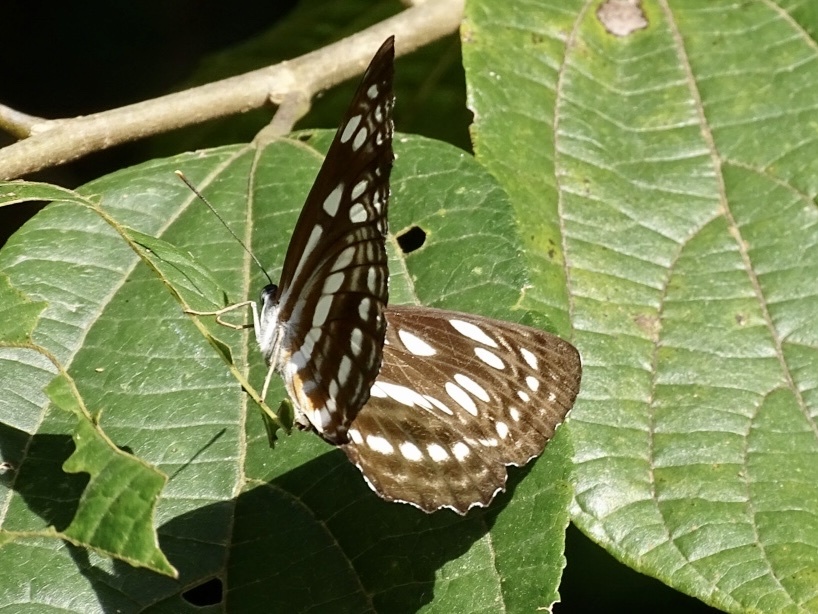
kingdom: Animalia
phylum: Arthropoda
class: Insecta
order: Lepidoptera
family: Nymphalidae
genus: Phaedyma
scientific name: Phaedyma columella
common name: Short banded sailer
